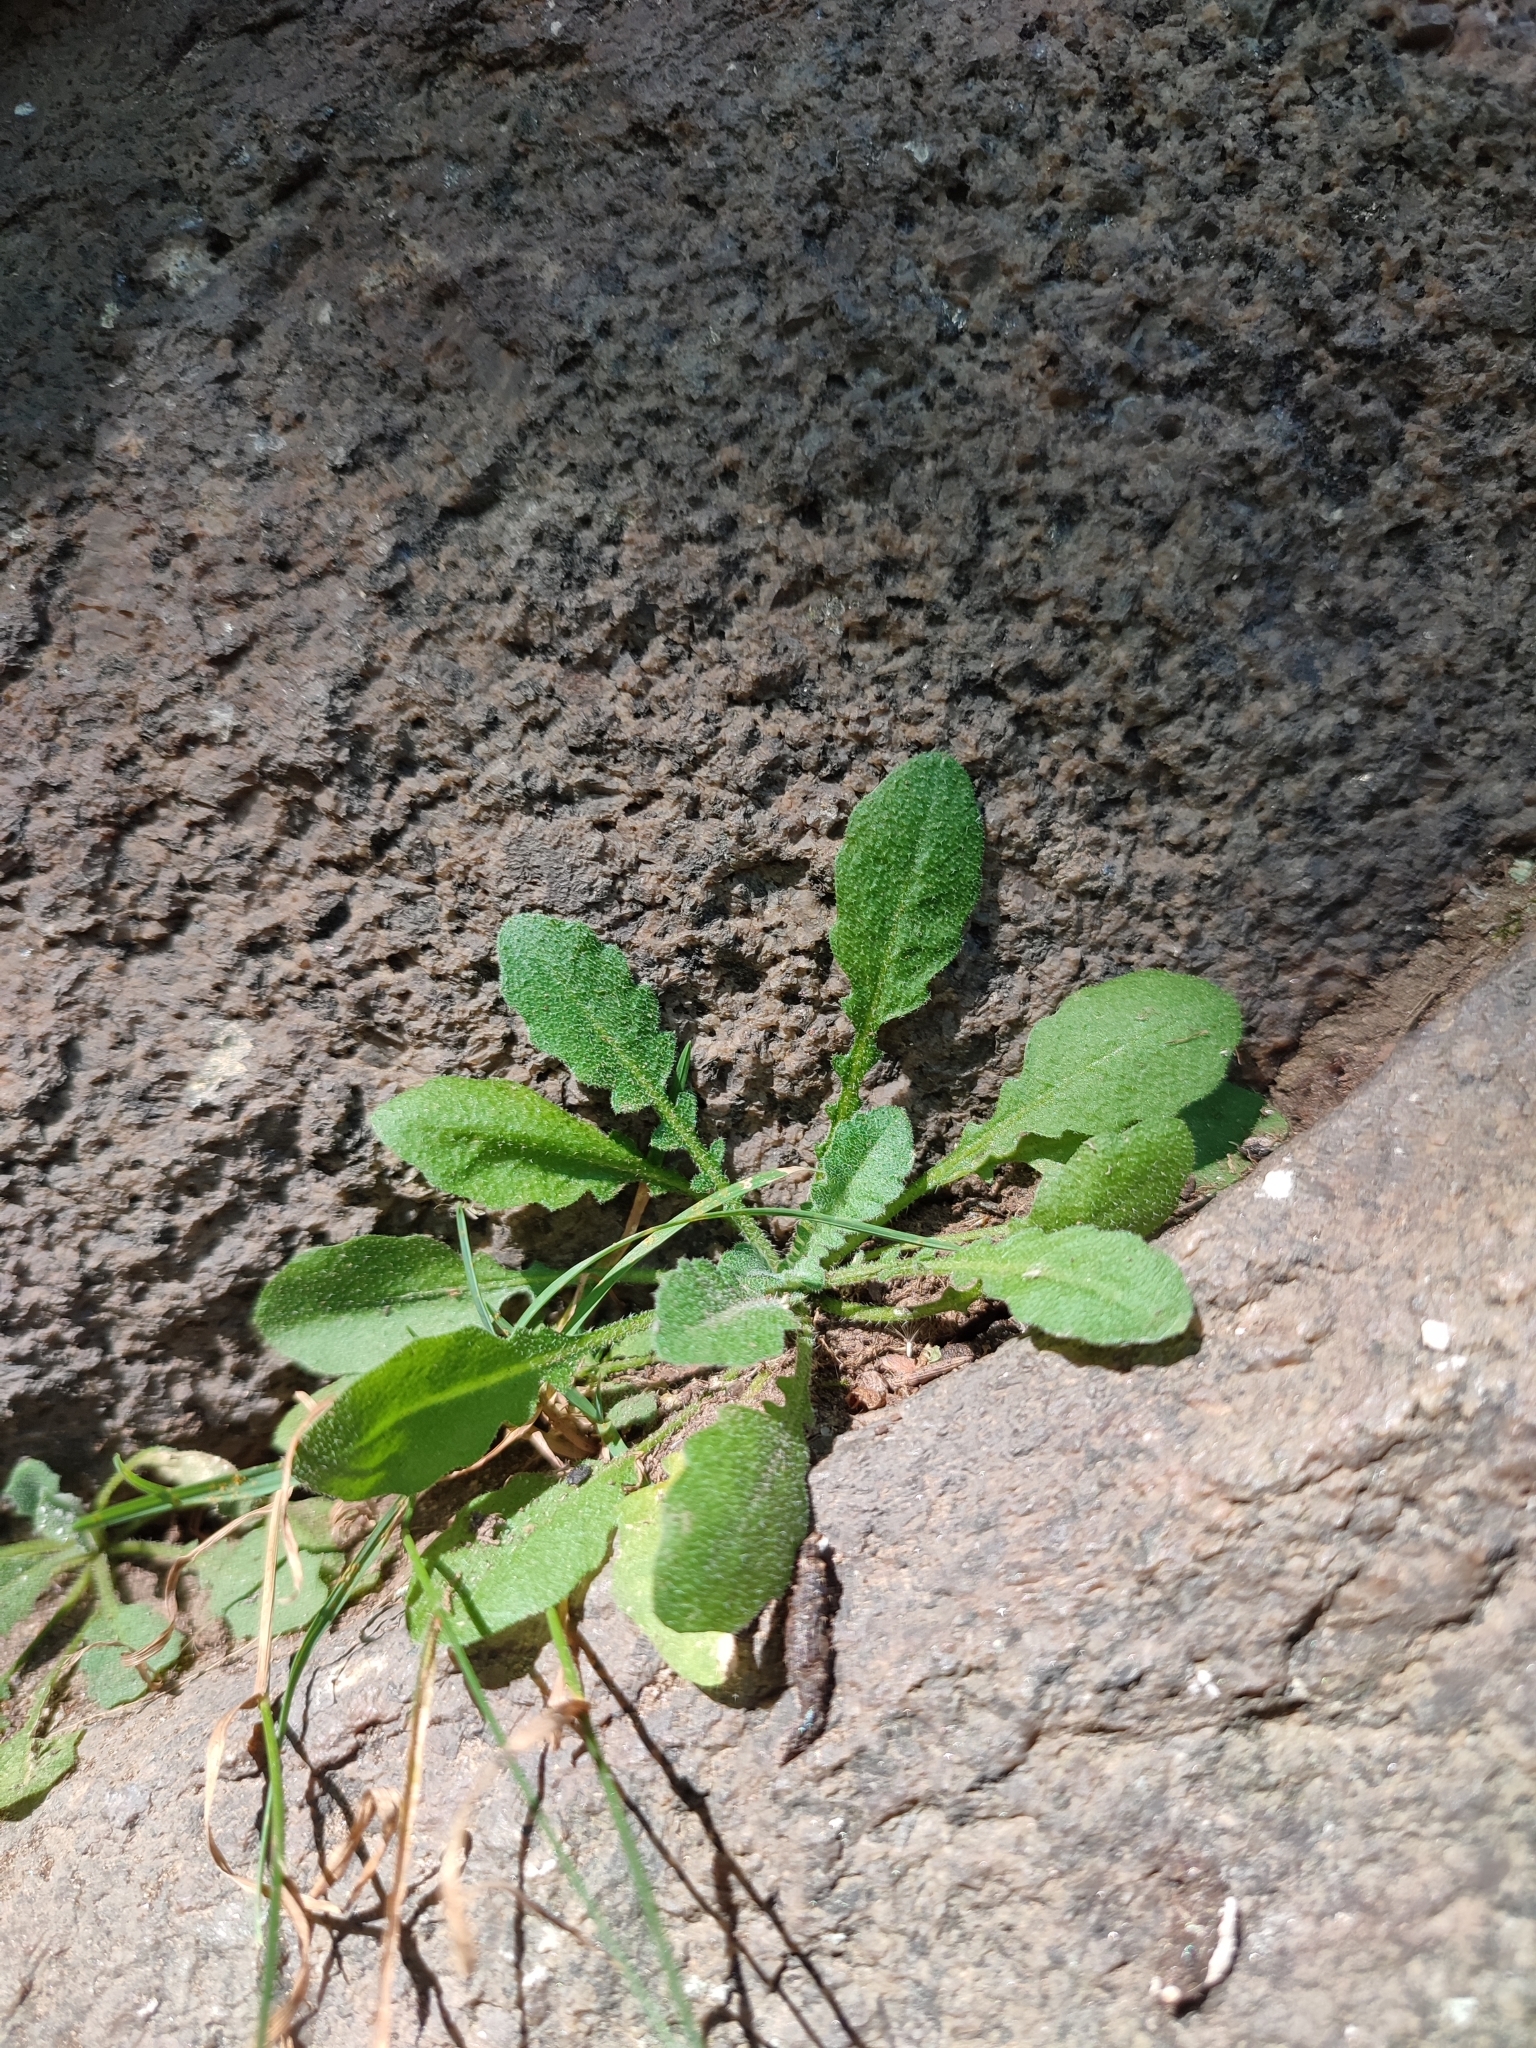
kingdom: Plantae
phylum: Tracheophyta
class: Magnoliopsida
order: Brassicales
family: Brassicaceae
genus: Arabidopsis
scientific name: Arabidopsis arenosa
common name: Sand rock-cress
